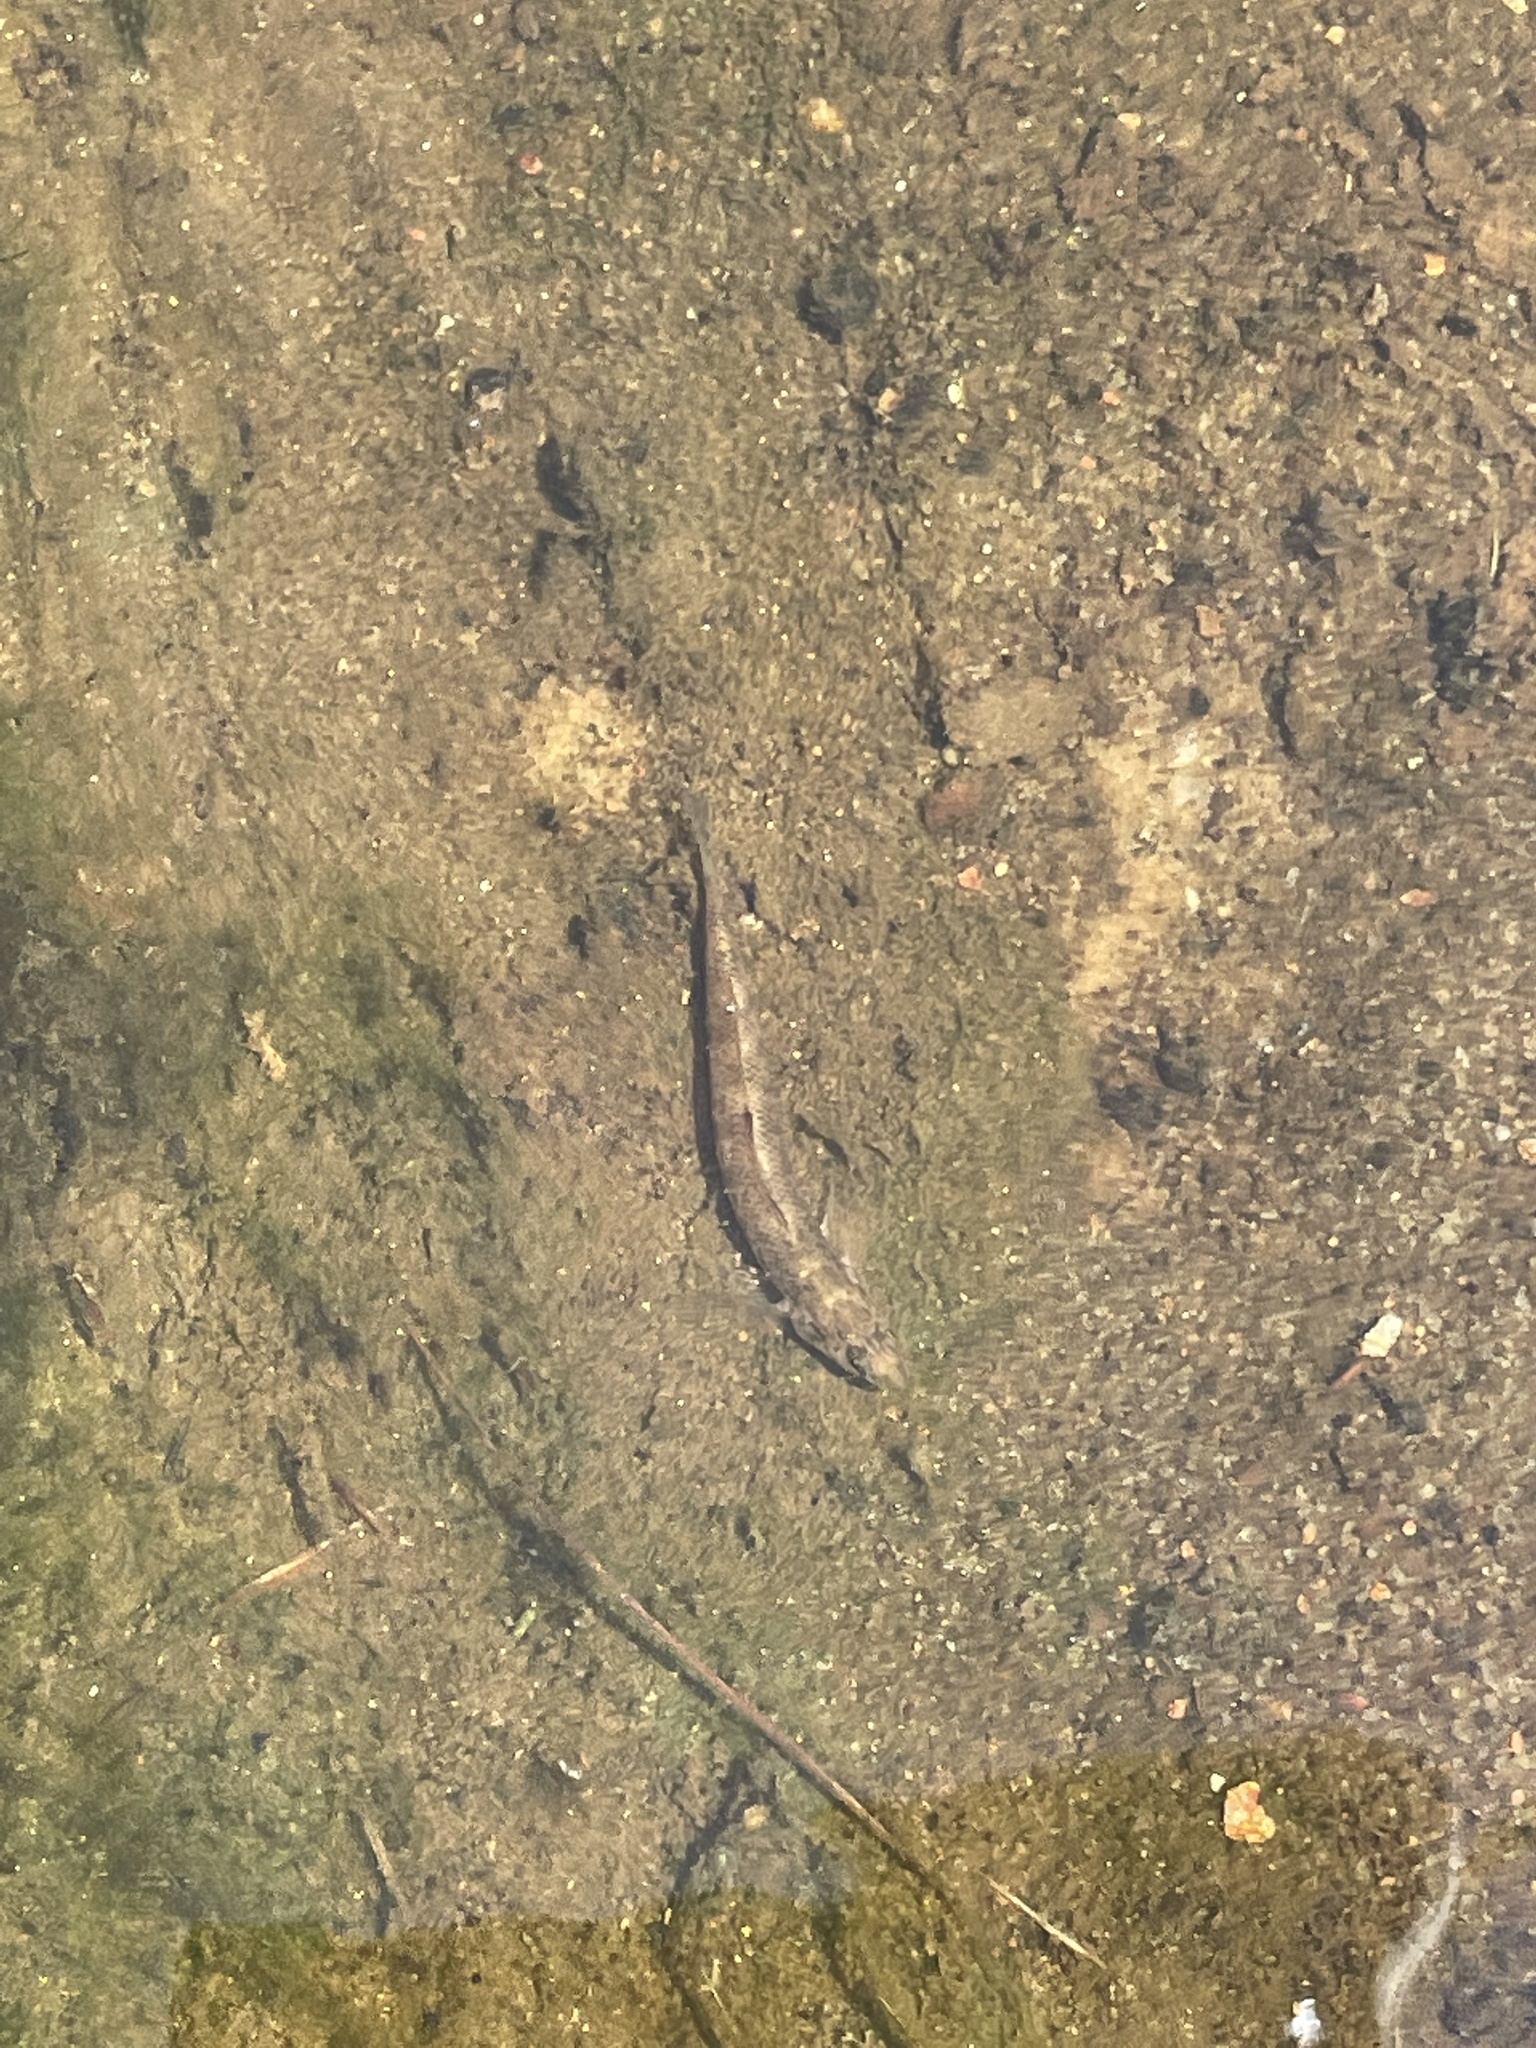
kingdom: Animalia
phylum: Chordata
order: Perciformes
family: Percidae
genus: Etheostoma
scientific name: Etheostoma scotti
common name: Cherokee darter
